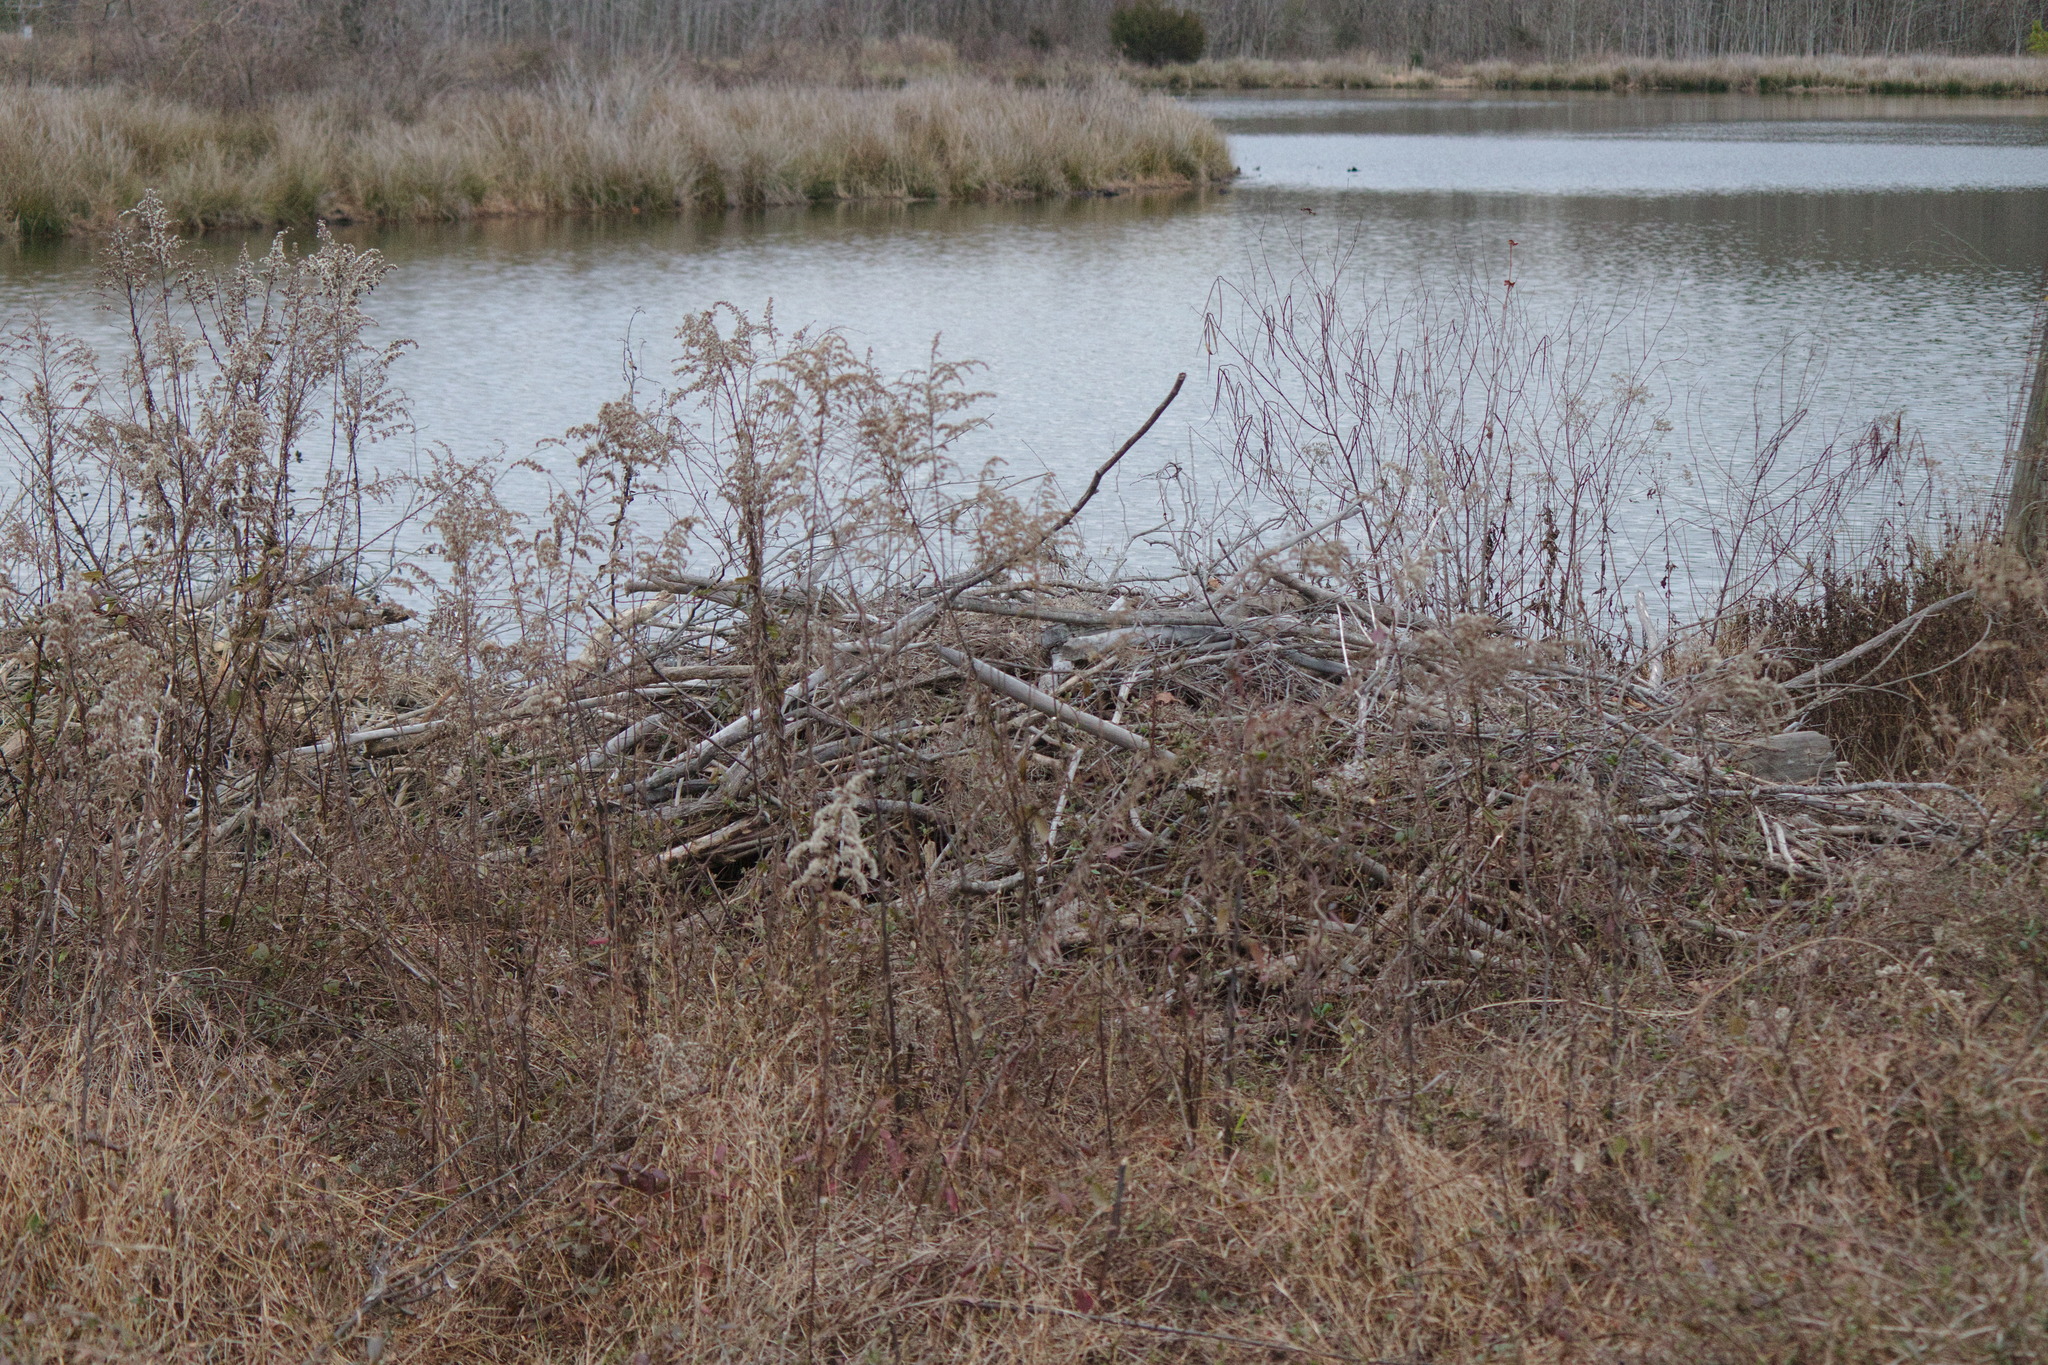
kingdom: Animalia
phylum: Chordata
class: Mammalia
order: Rodentia
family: Castoridae
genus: Castor
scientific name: Castor canadensis
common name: American beaver
